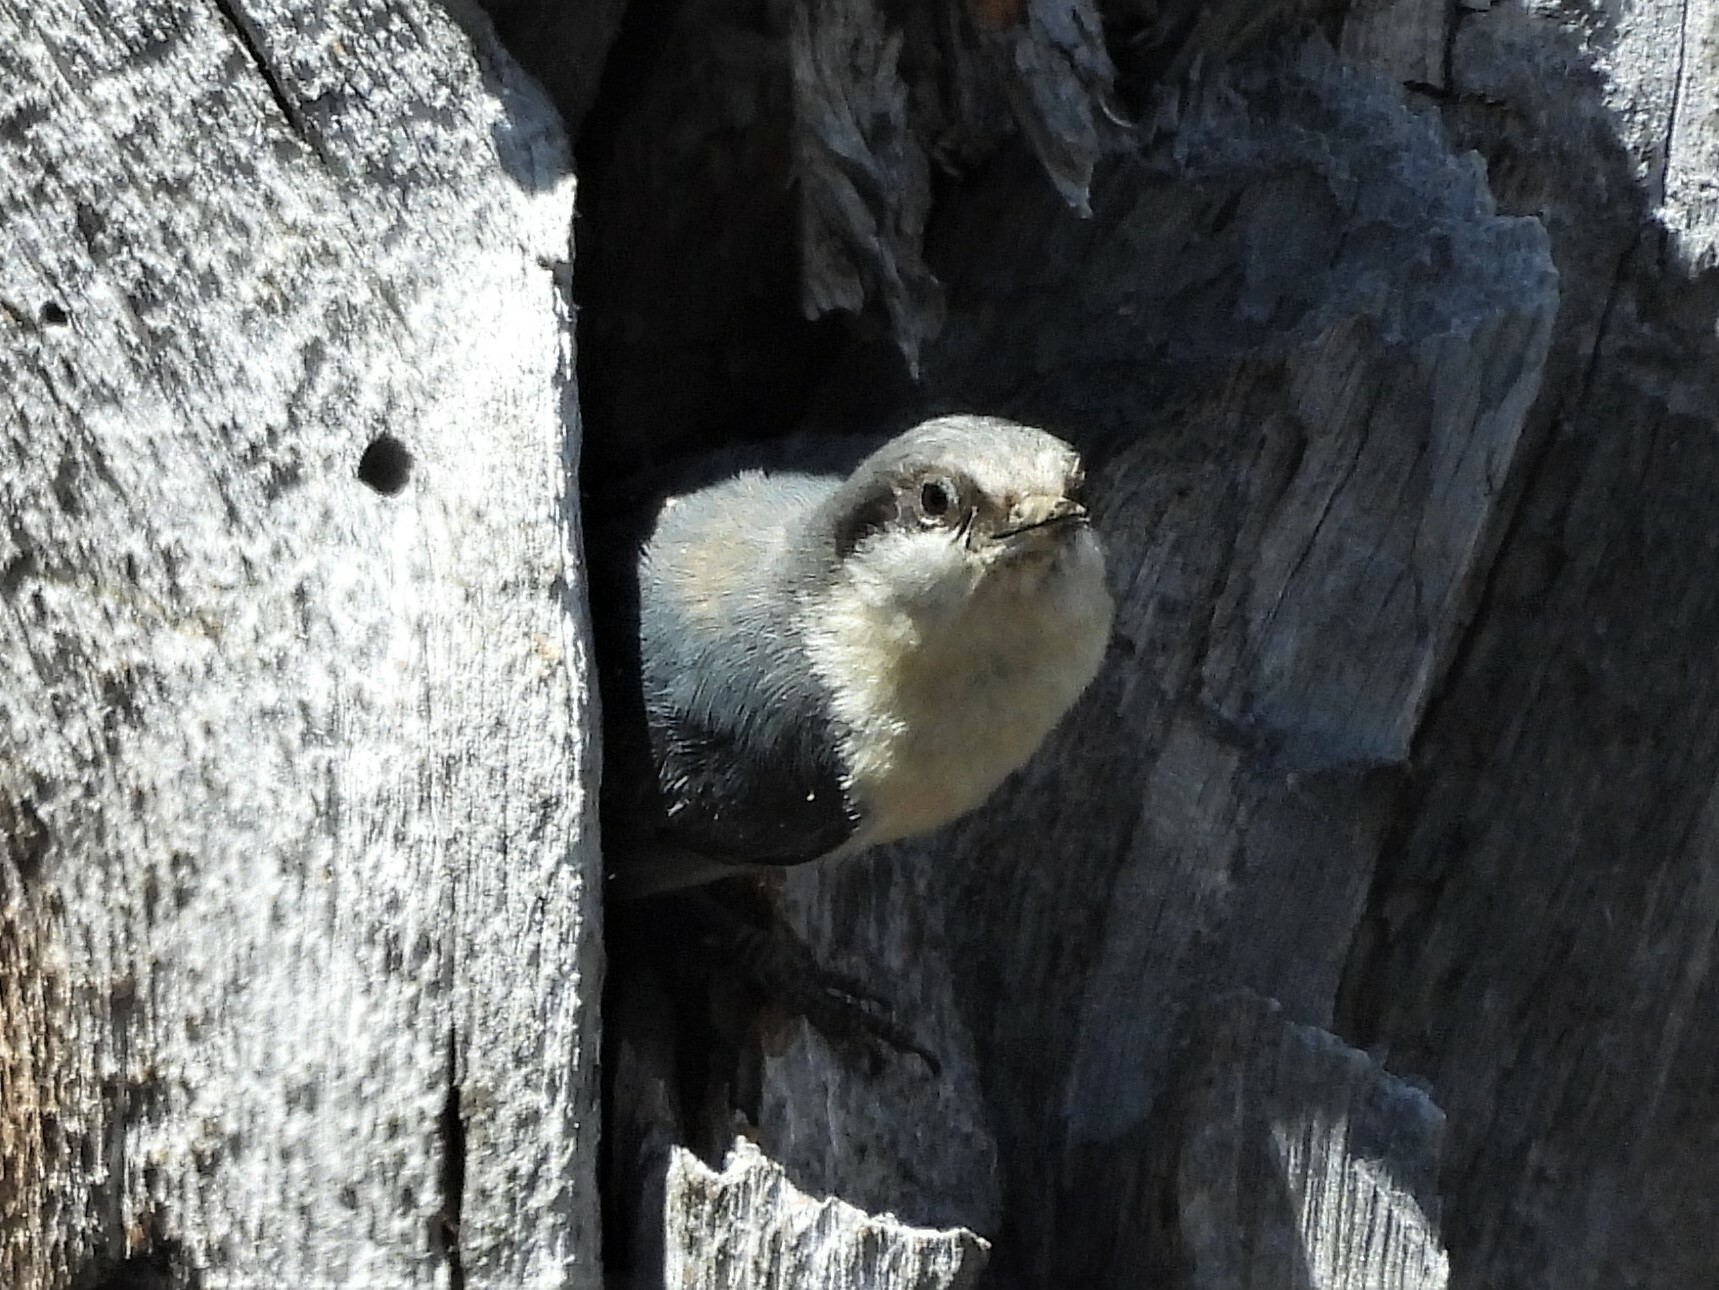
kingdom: Animalia
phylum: Chordata
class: Aves
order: Passeriformes
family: Sittidae
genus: Sitta
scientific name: Sitta pygmaea
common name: Pygmy nuthatch
